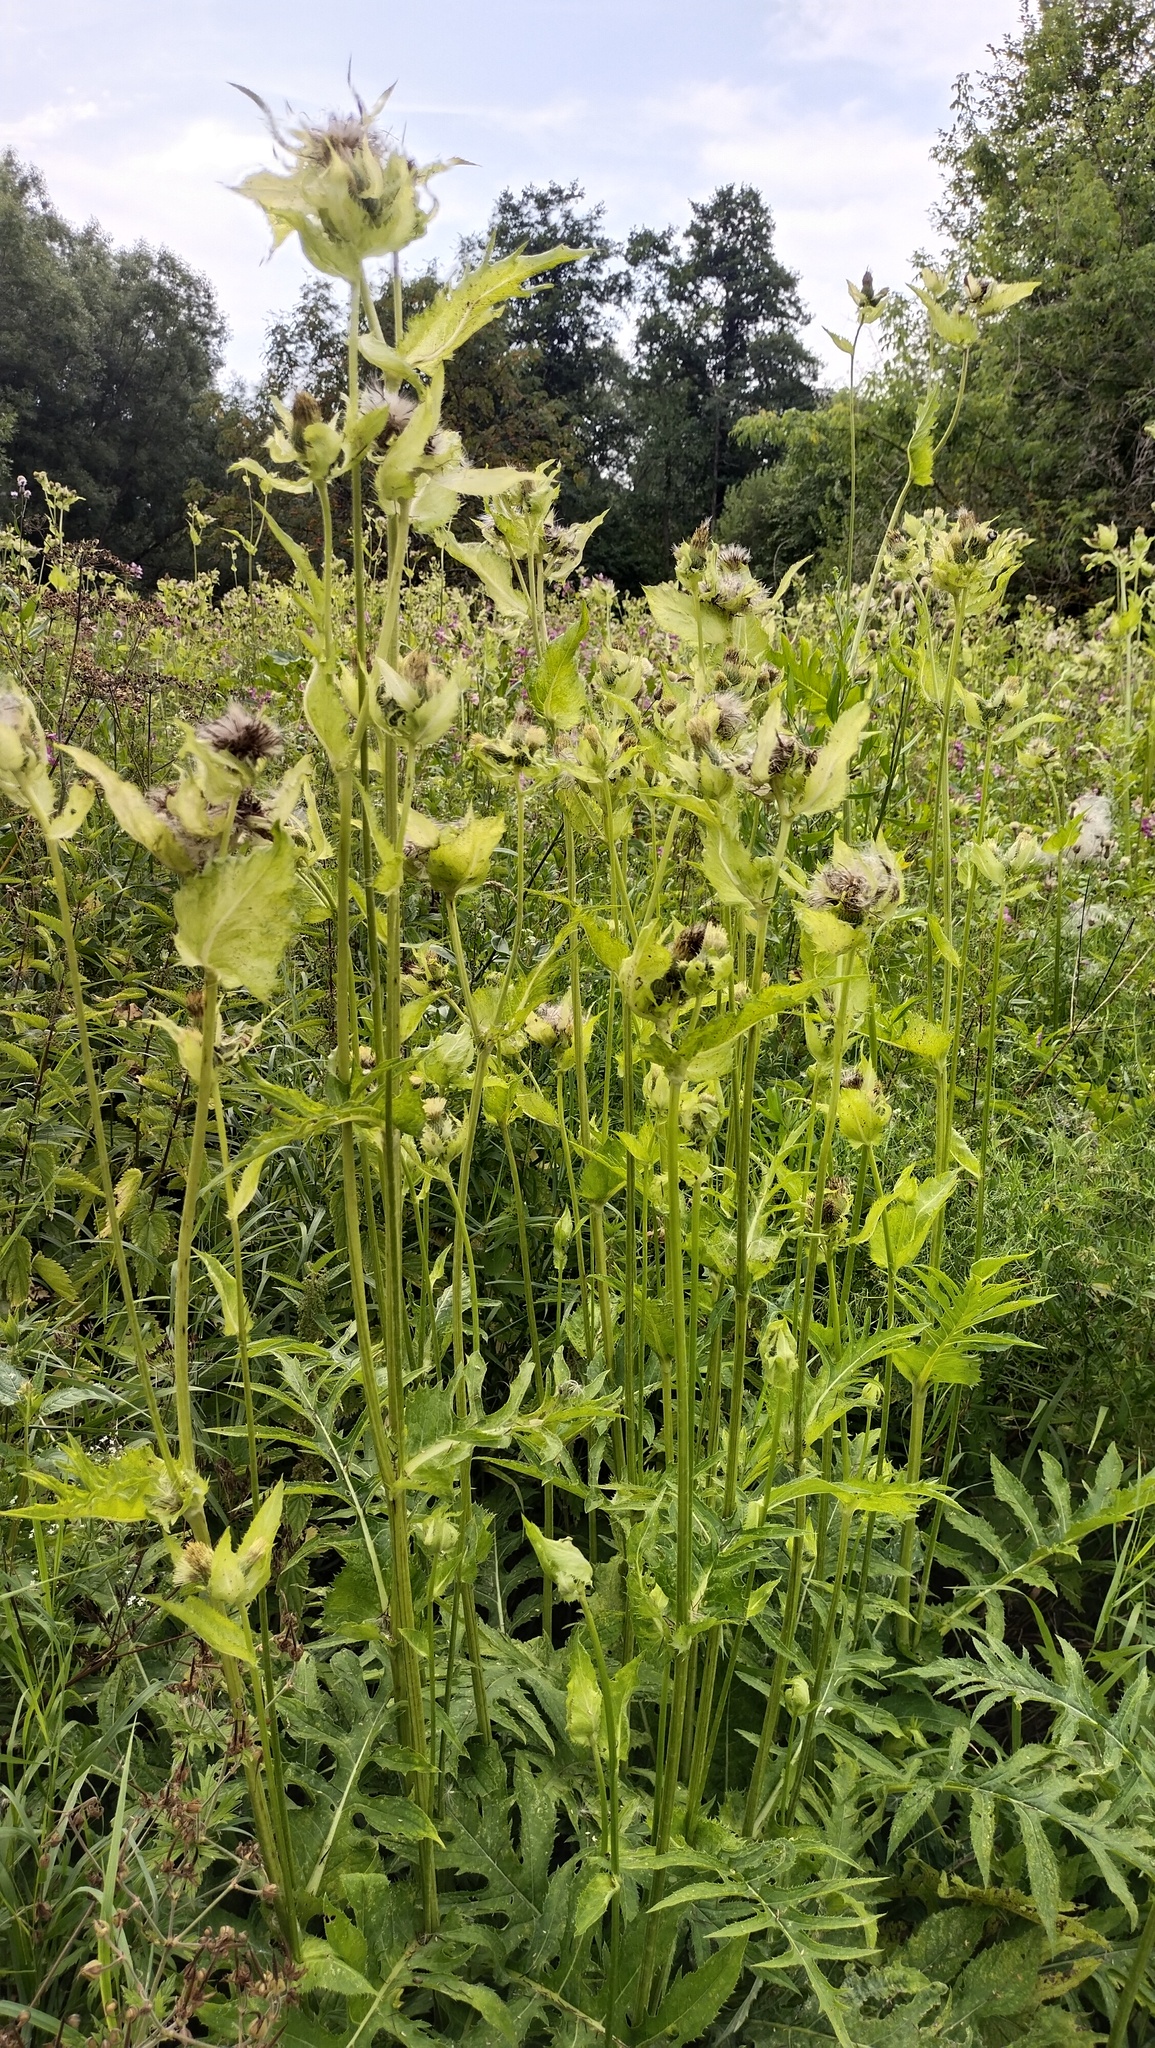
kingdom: Plantae
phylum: Tracheophyta
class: Magnoliopsida
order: Asterales
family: Asteraceae
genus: Cirsium
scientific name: Cirsium oleraceum
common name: Cabbage thistle
